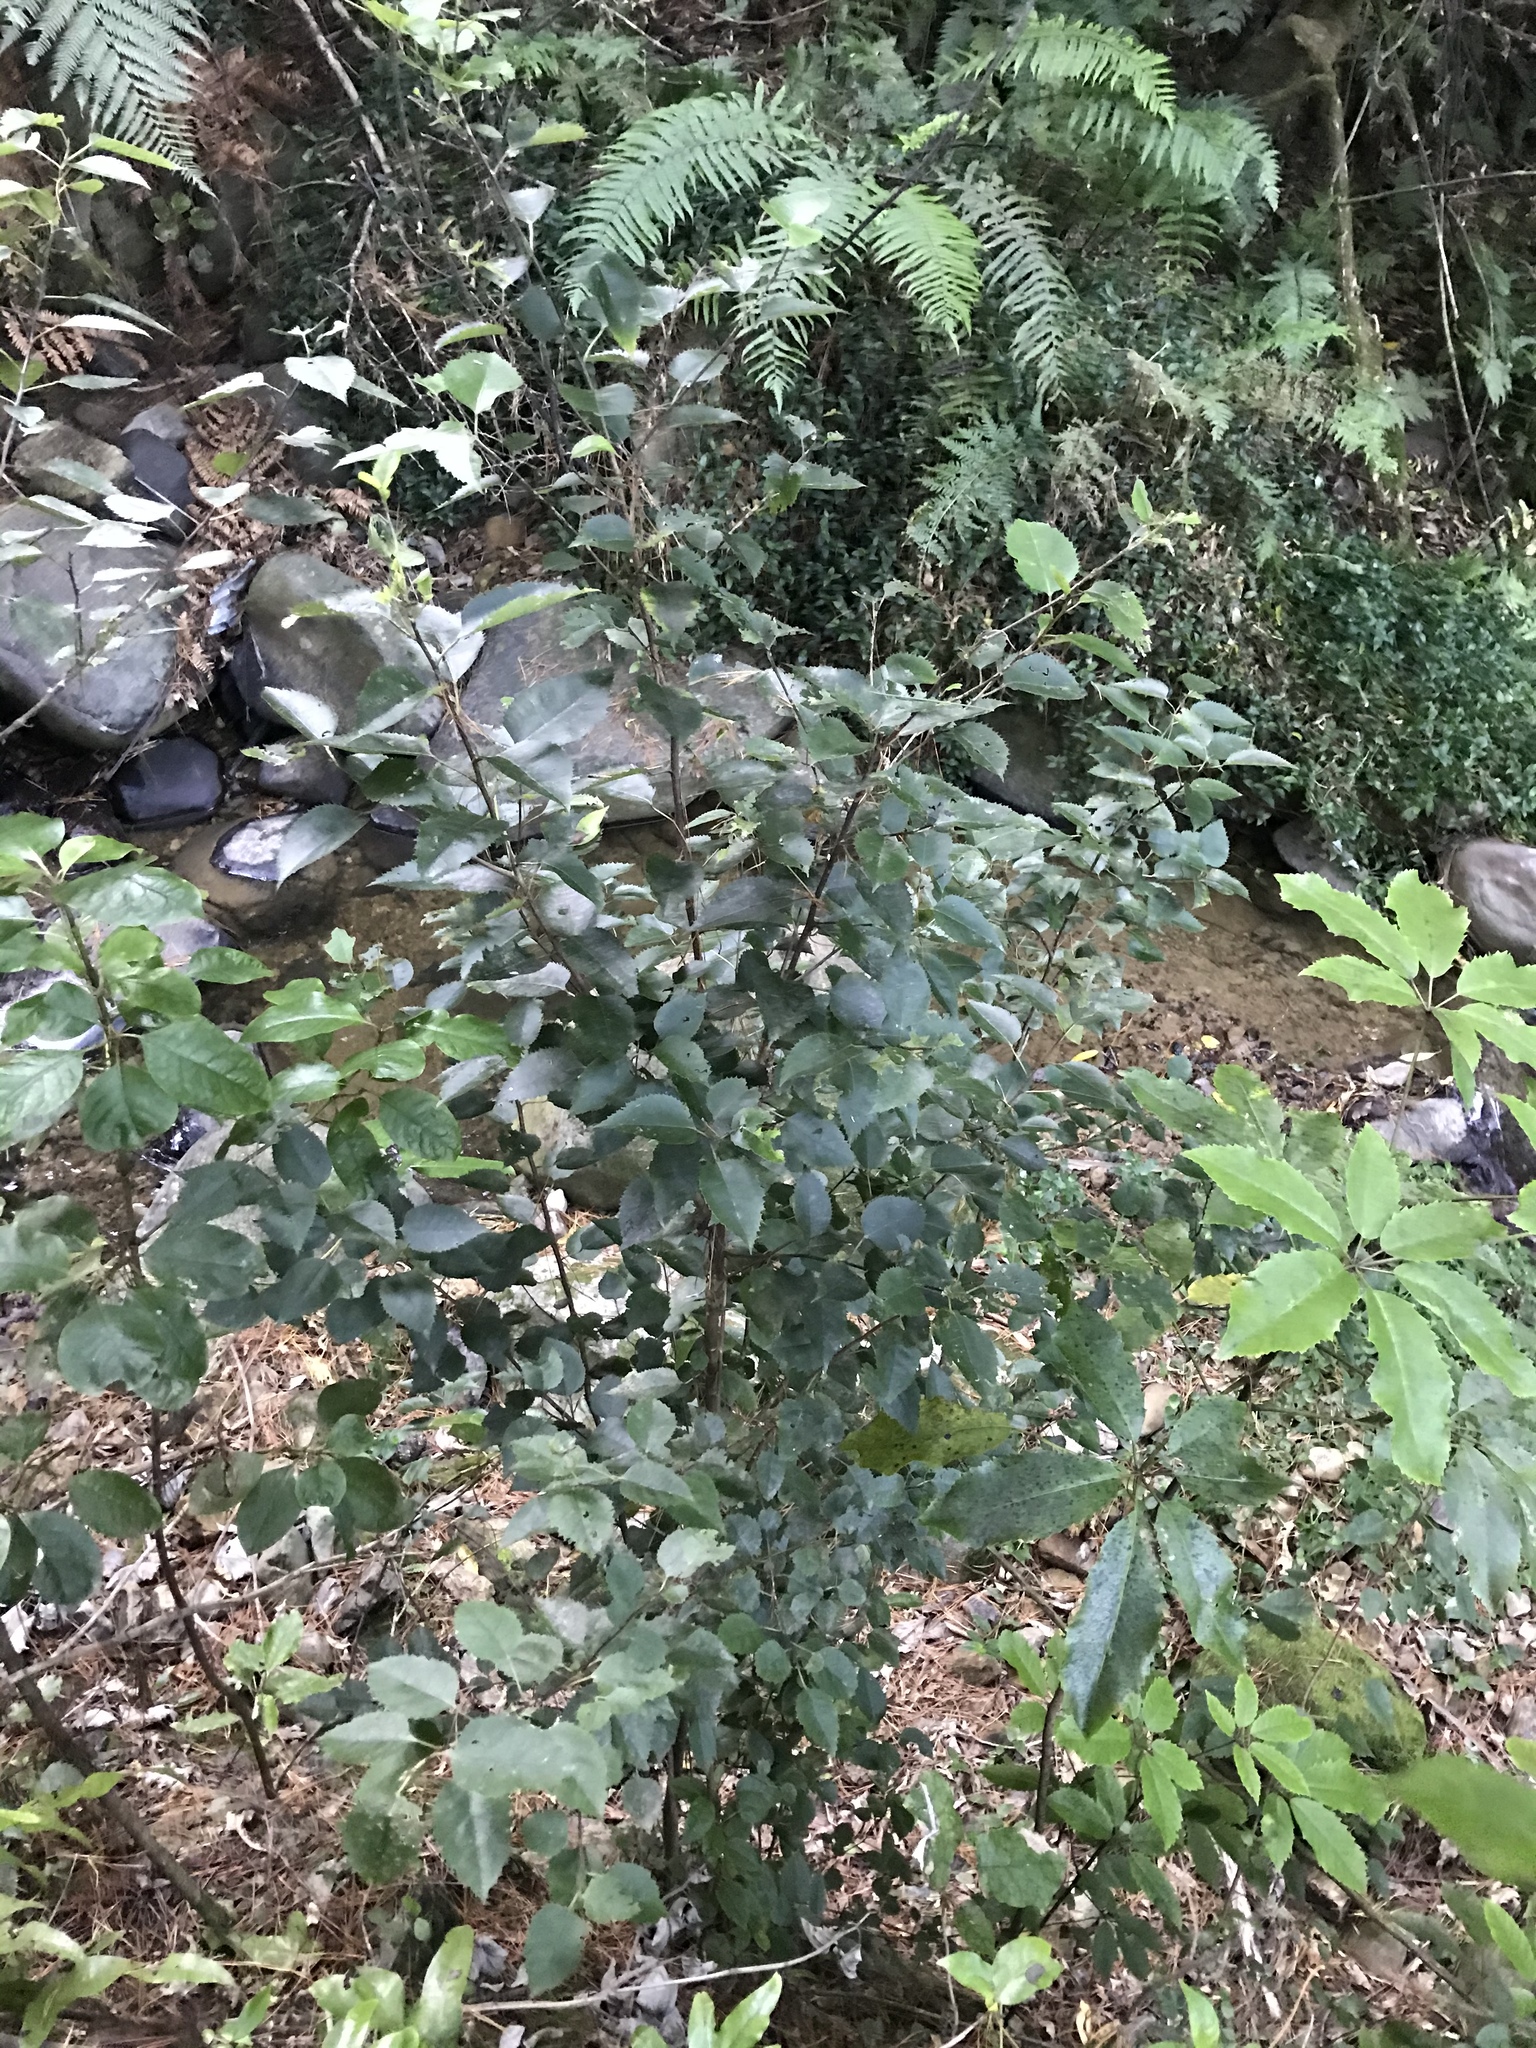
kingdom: Plantae
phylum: Tracheophyta
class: Magnoliopsida
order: Malvales
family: Malvaceae
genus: Hoheria
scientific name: Hoheria populnea
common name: Lacebark
